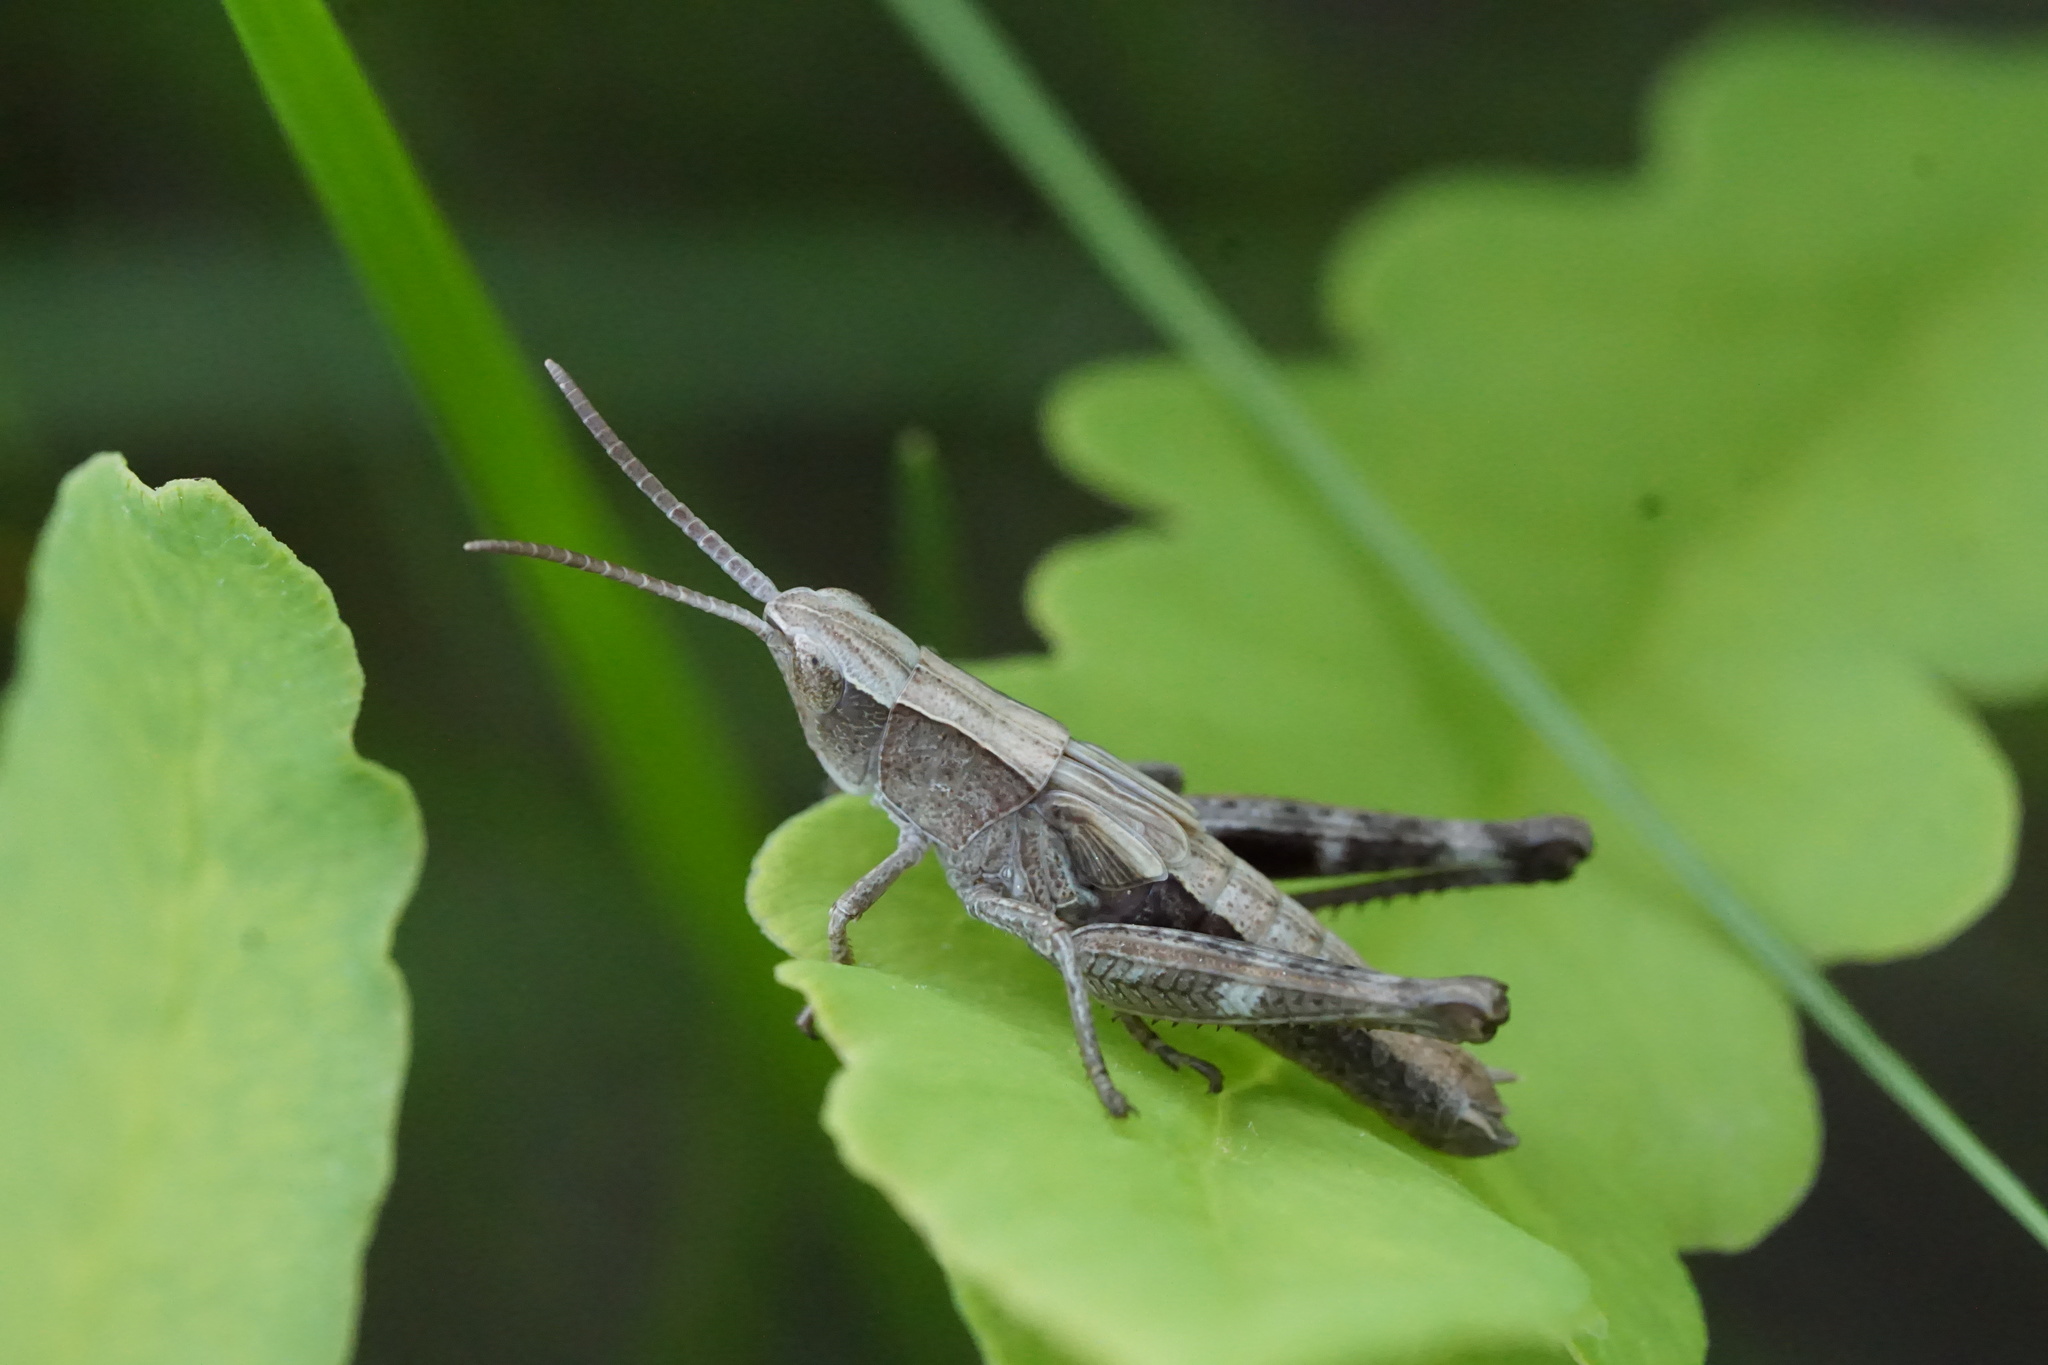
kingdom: Animalia
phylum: Arthropoda
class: Insecta
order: Orthoptera
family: Acrididae
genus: Chloealtis
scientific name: Chloealtis conspersa
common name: Sprinkled broad-winged grasshopper
